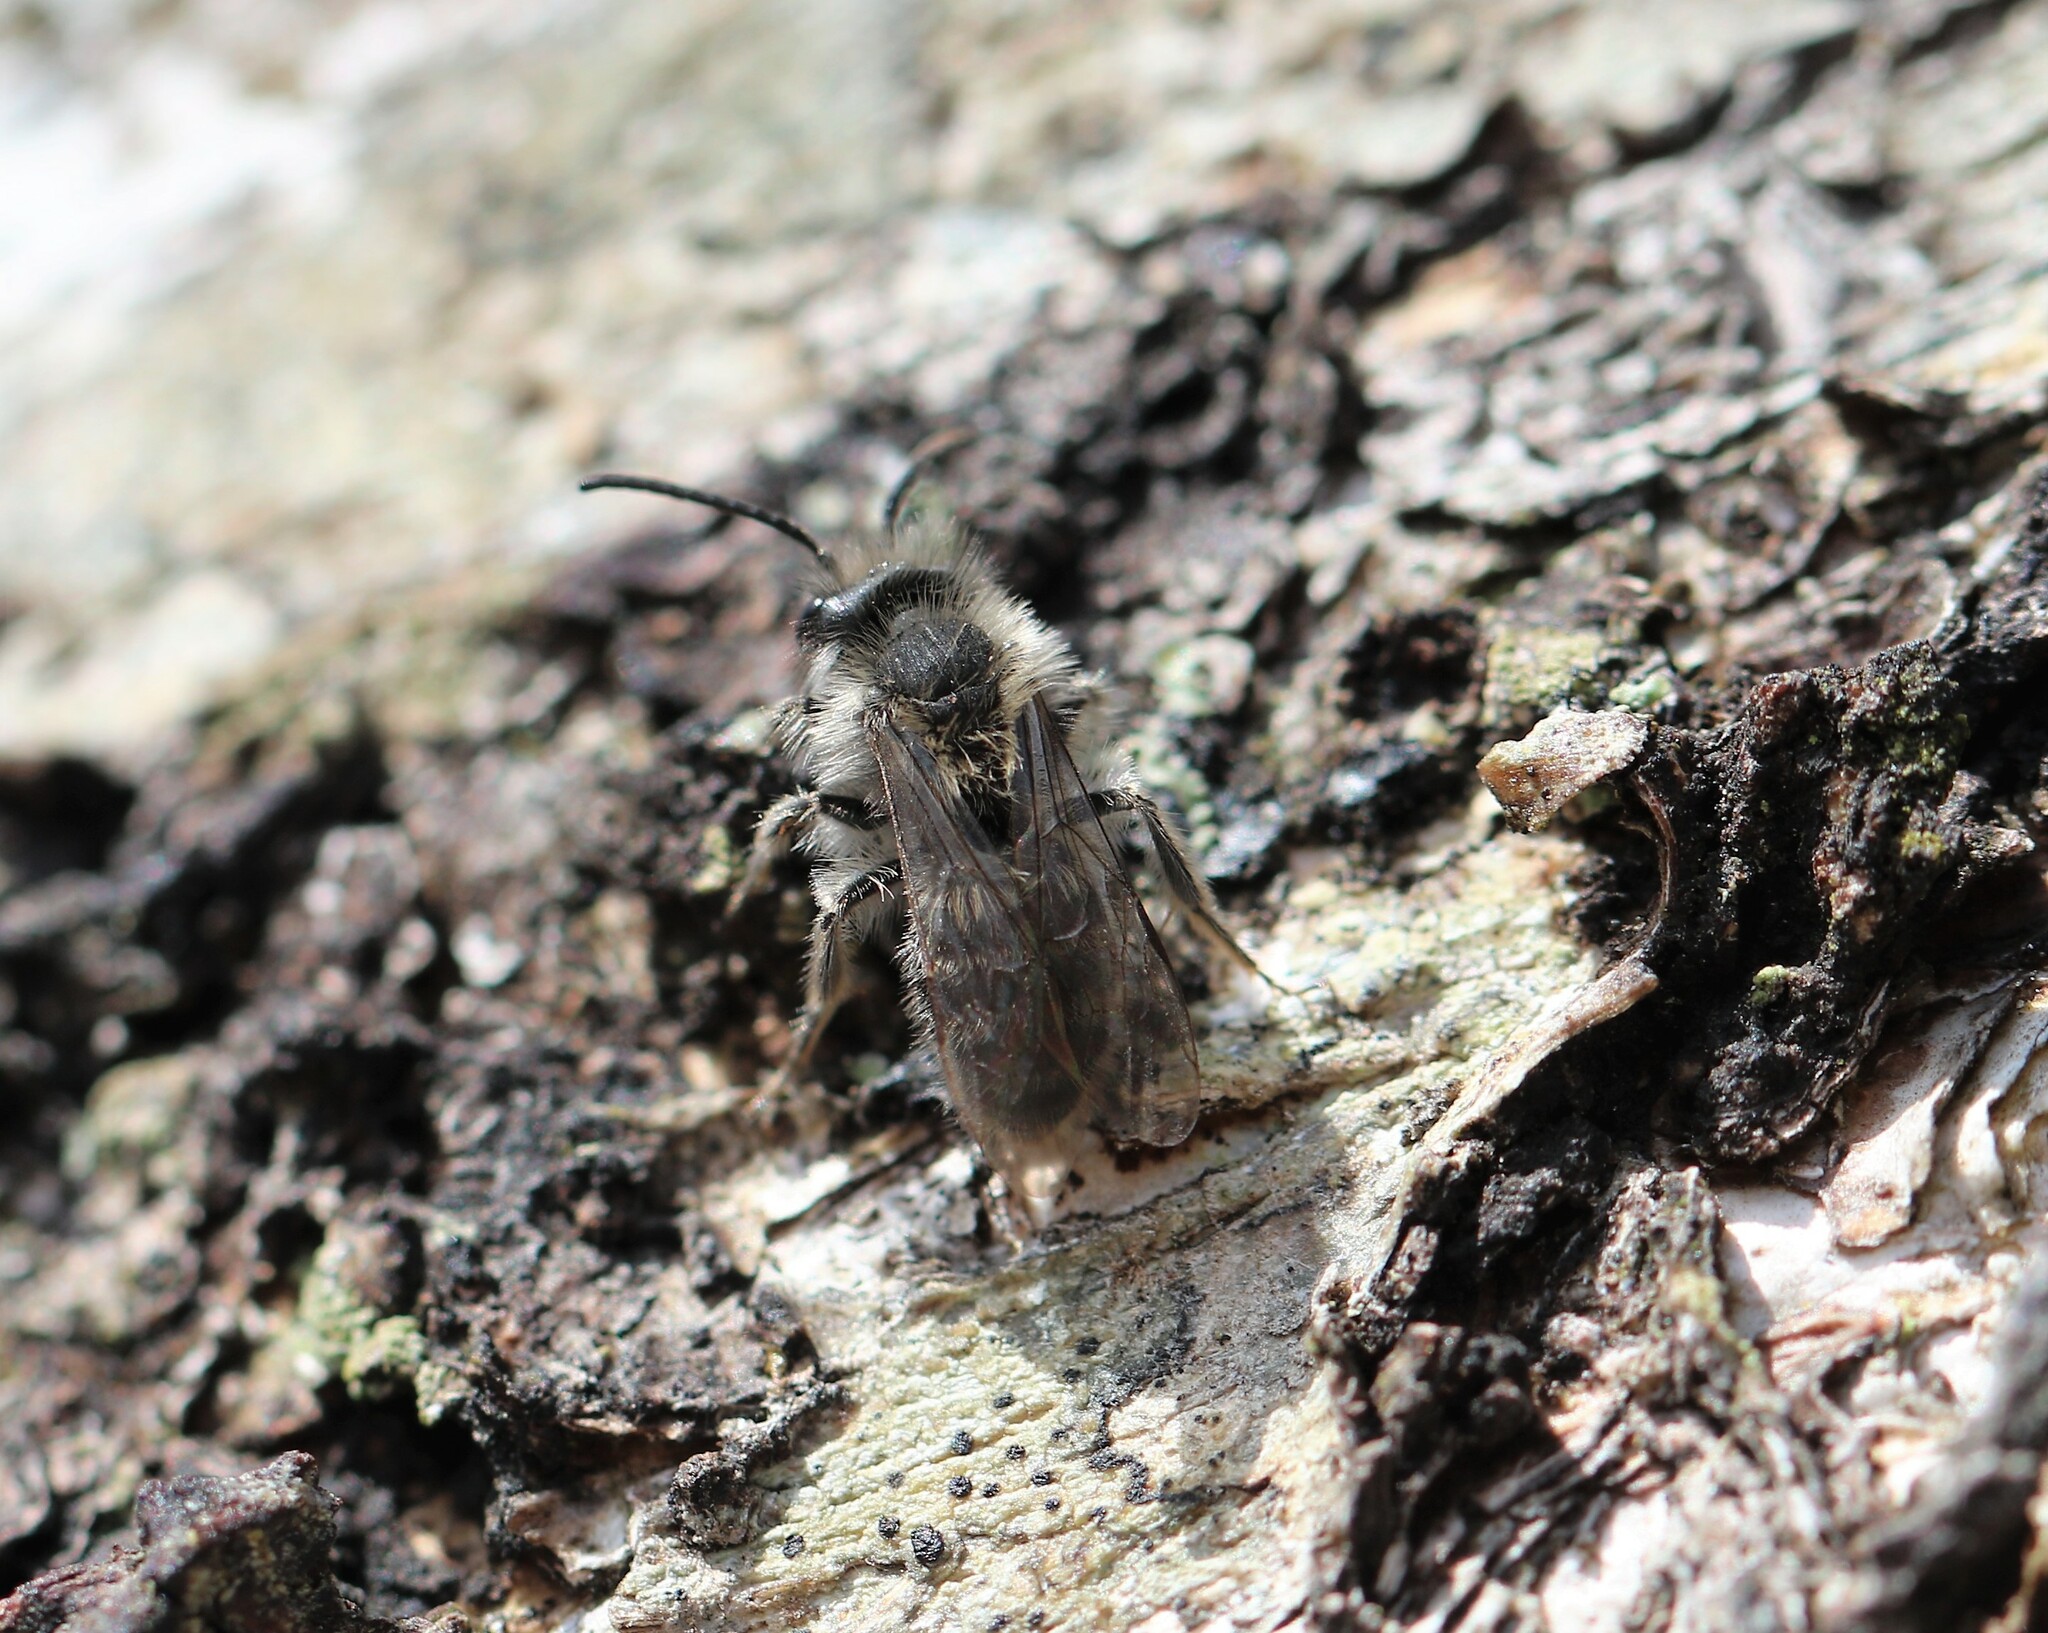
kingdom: Animalia
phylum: Arthropoda
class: Insecta
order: Hymenoptera
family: Andrenidae
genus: Andrena
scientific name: Andrena frigida
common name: Frigid mining bee
